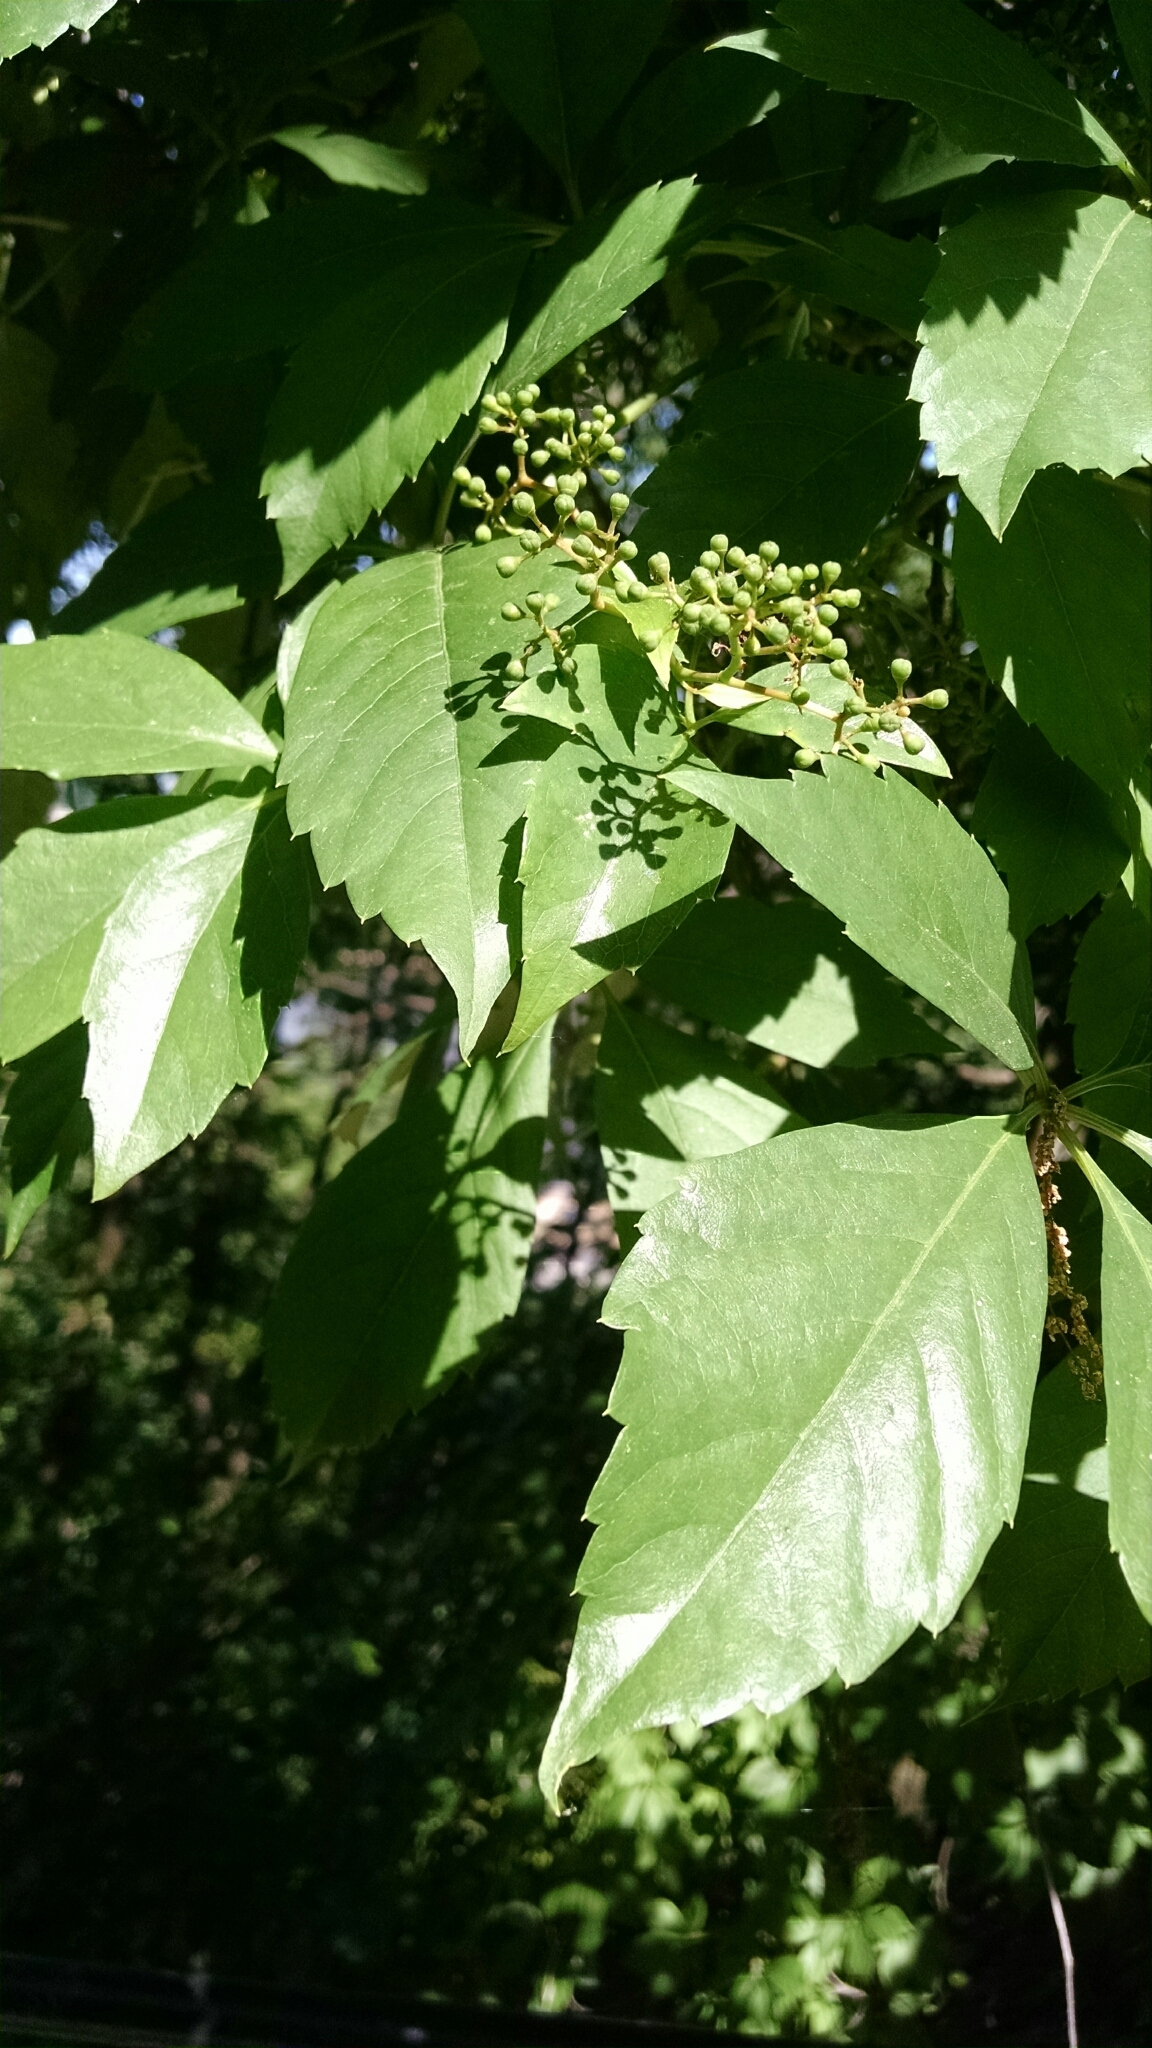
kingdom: Plantae
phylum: Tracheophyta
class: Magnoliopsida
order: Vitales
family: Vitaceae
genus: Parthenocissus
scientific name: Parthenocissus quinquefolia
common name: Virginia-creeper
